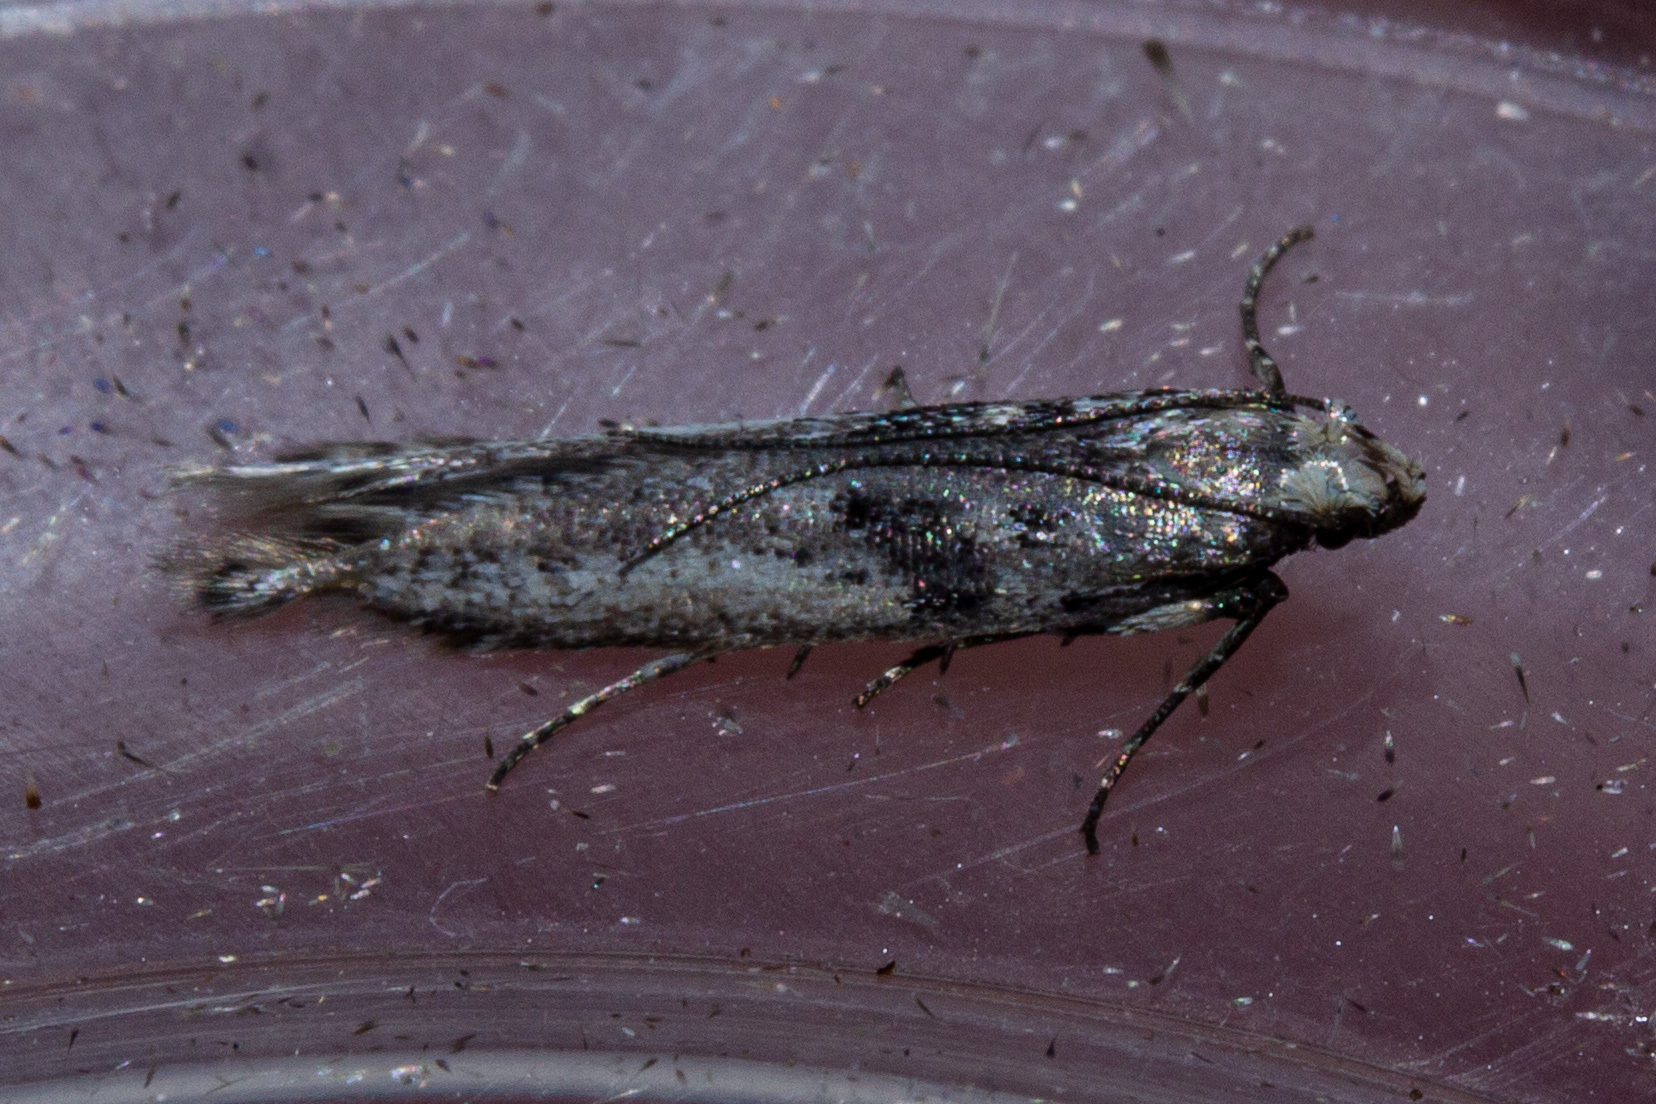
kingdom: Animalia
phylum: Arthropoda
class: Insecta
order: Lepidoptera
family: Gelechiidae
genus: Aristotelia
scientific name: Aristotelia paradesma
